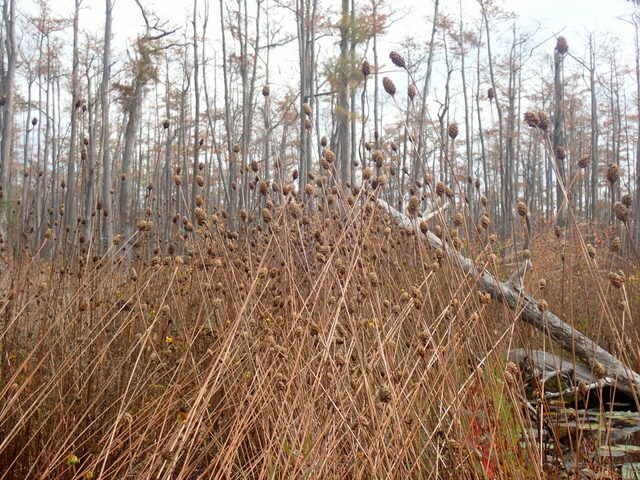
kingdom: Plantae
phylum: Tracheophyta
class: Liliopsida
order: Poales
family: Xyridaceae
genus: Xyris
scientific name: Xyris fimbriata
